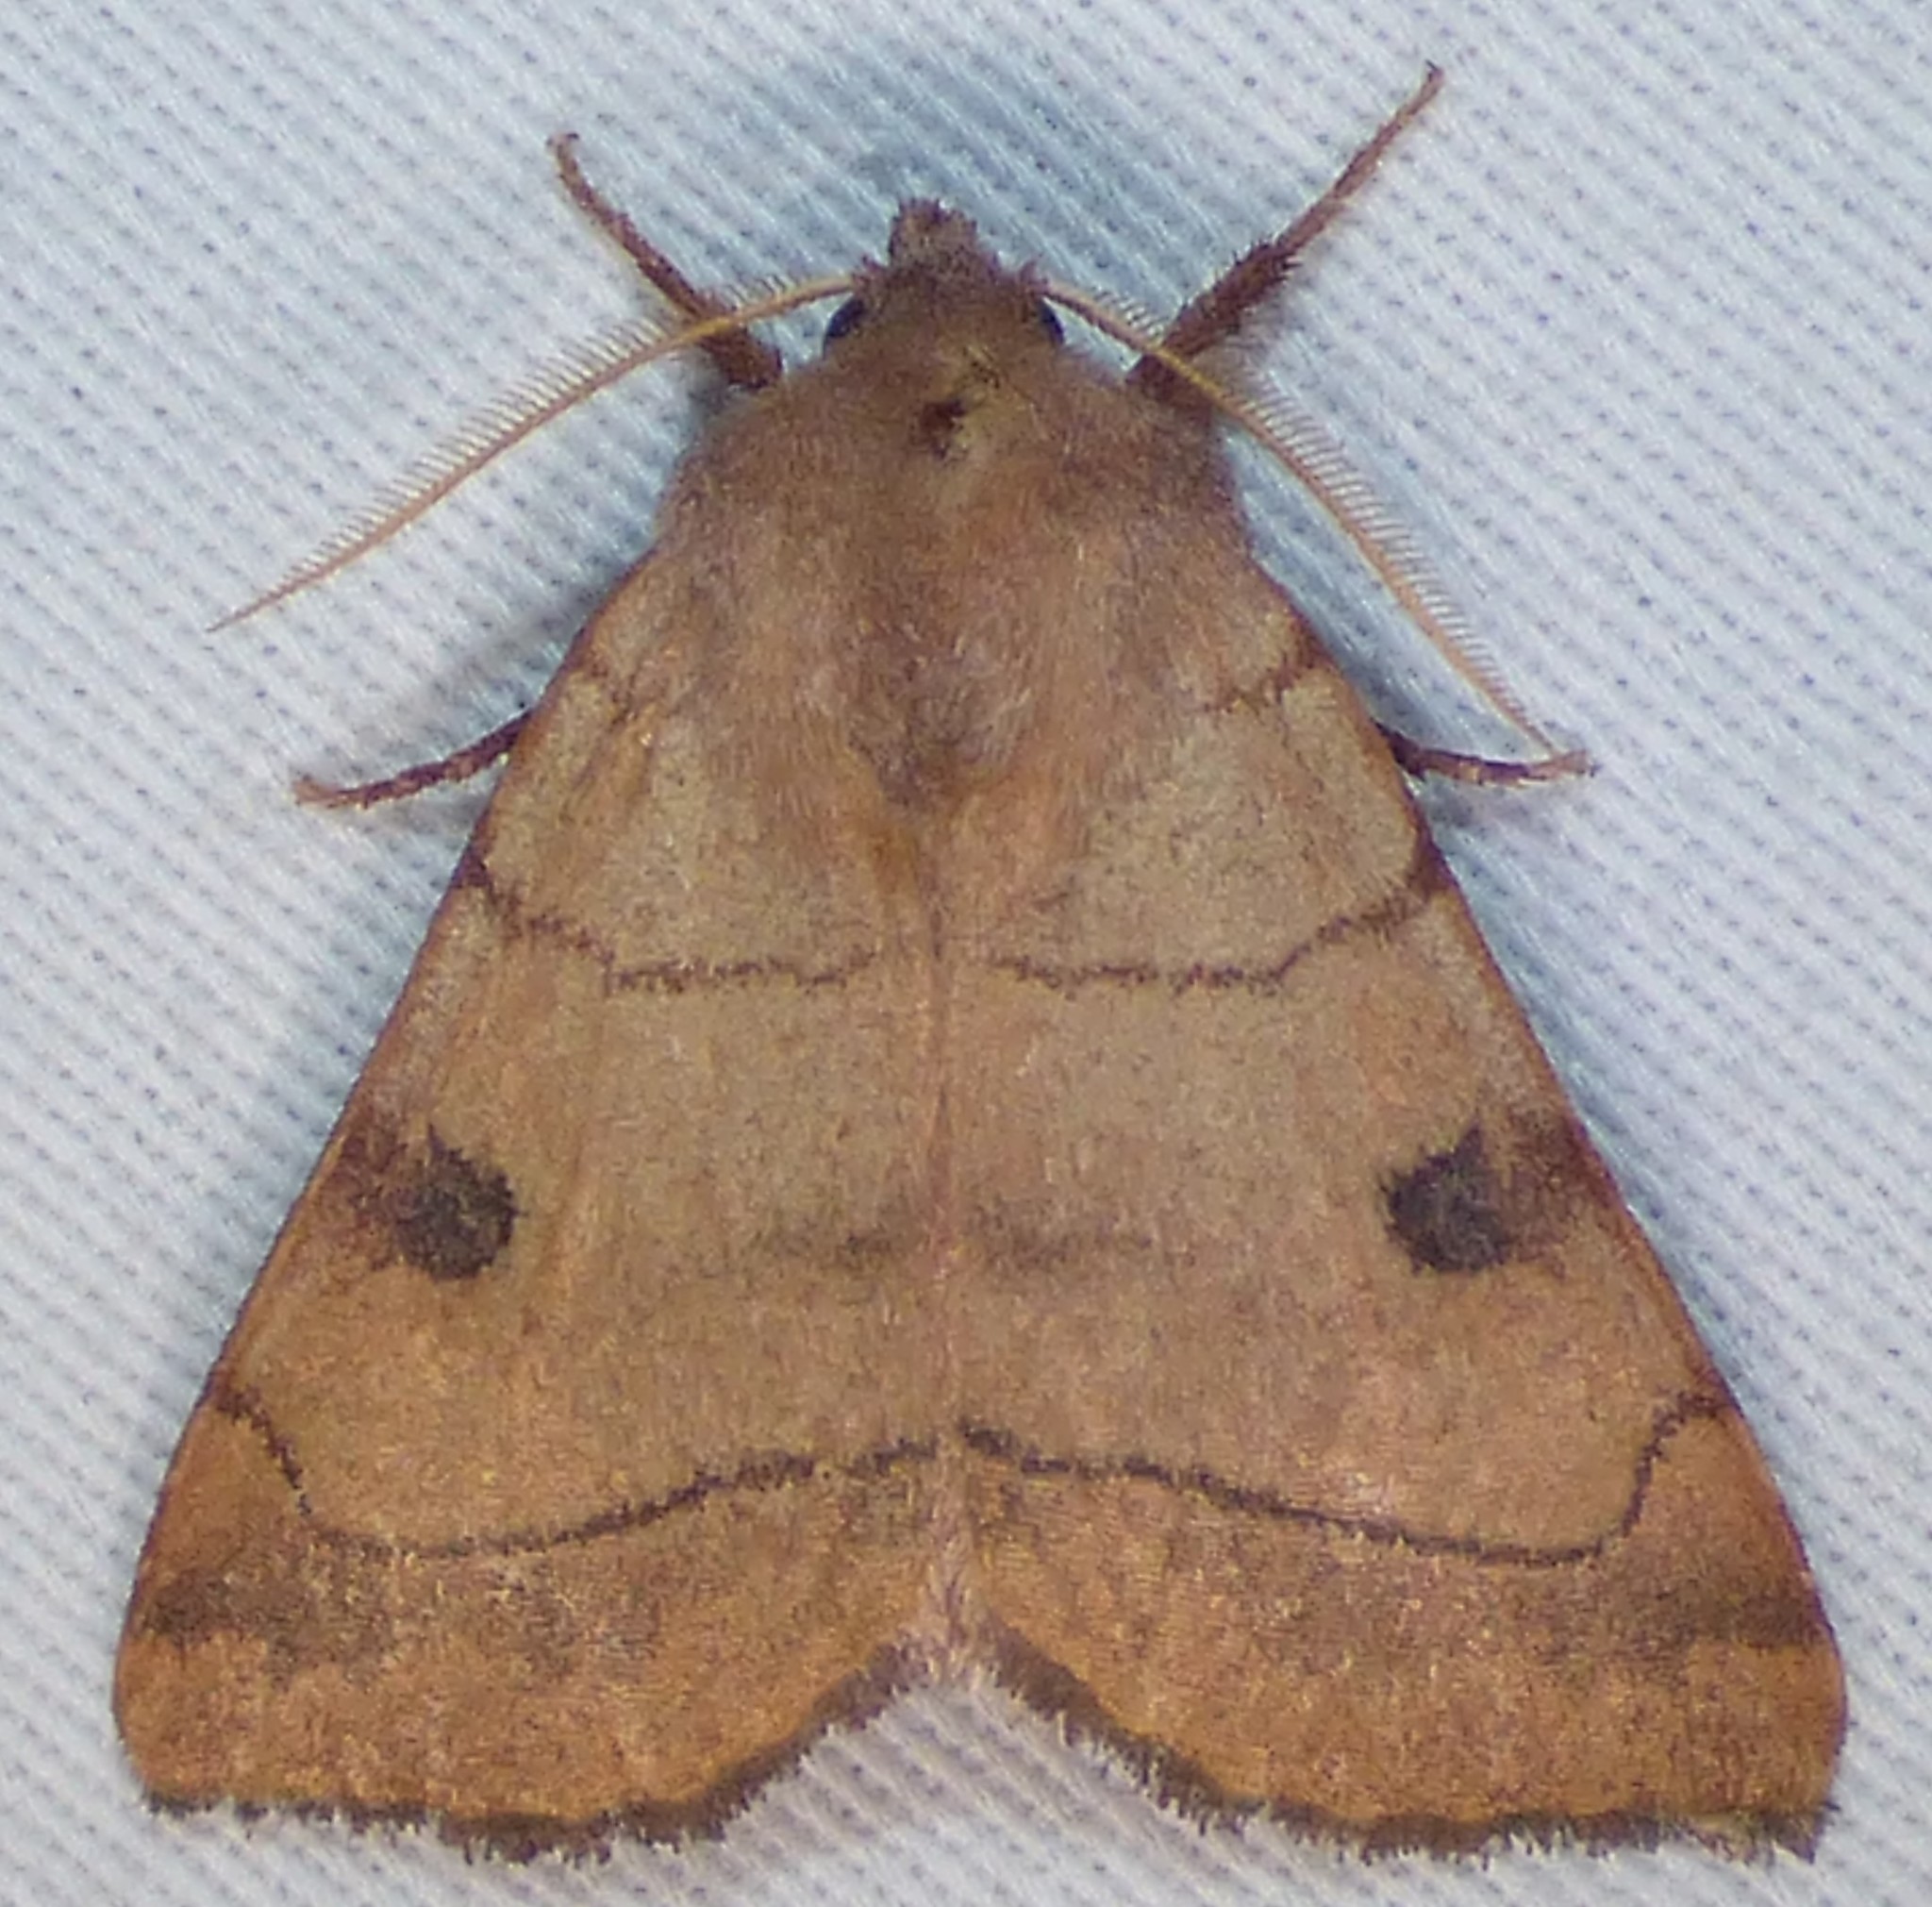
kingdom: Animalia
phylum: Arthropoda
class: Insecta
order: Lepidoptera
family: Noctuidae
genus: Choephora
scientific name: Choephora fungorum
